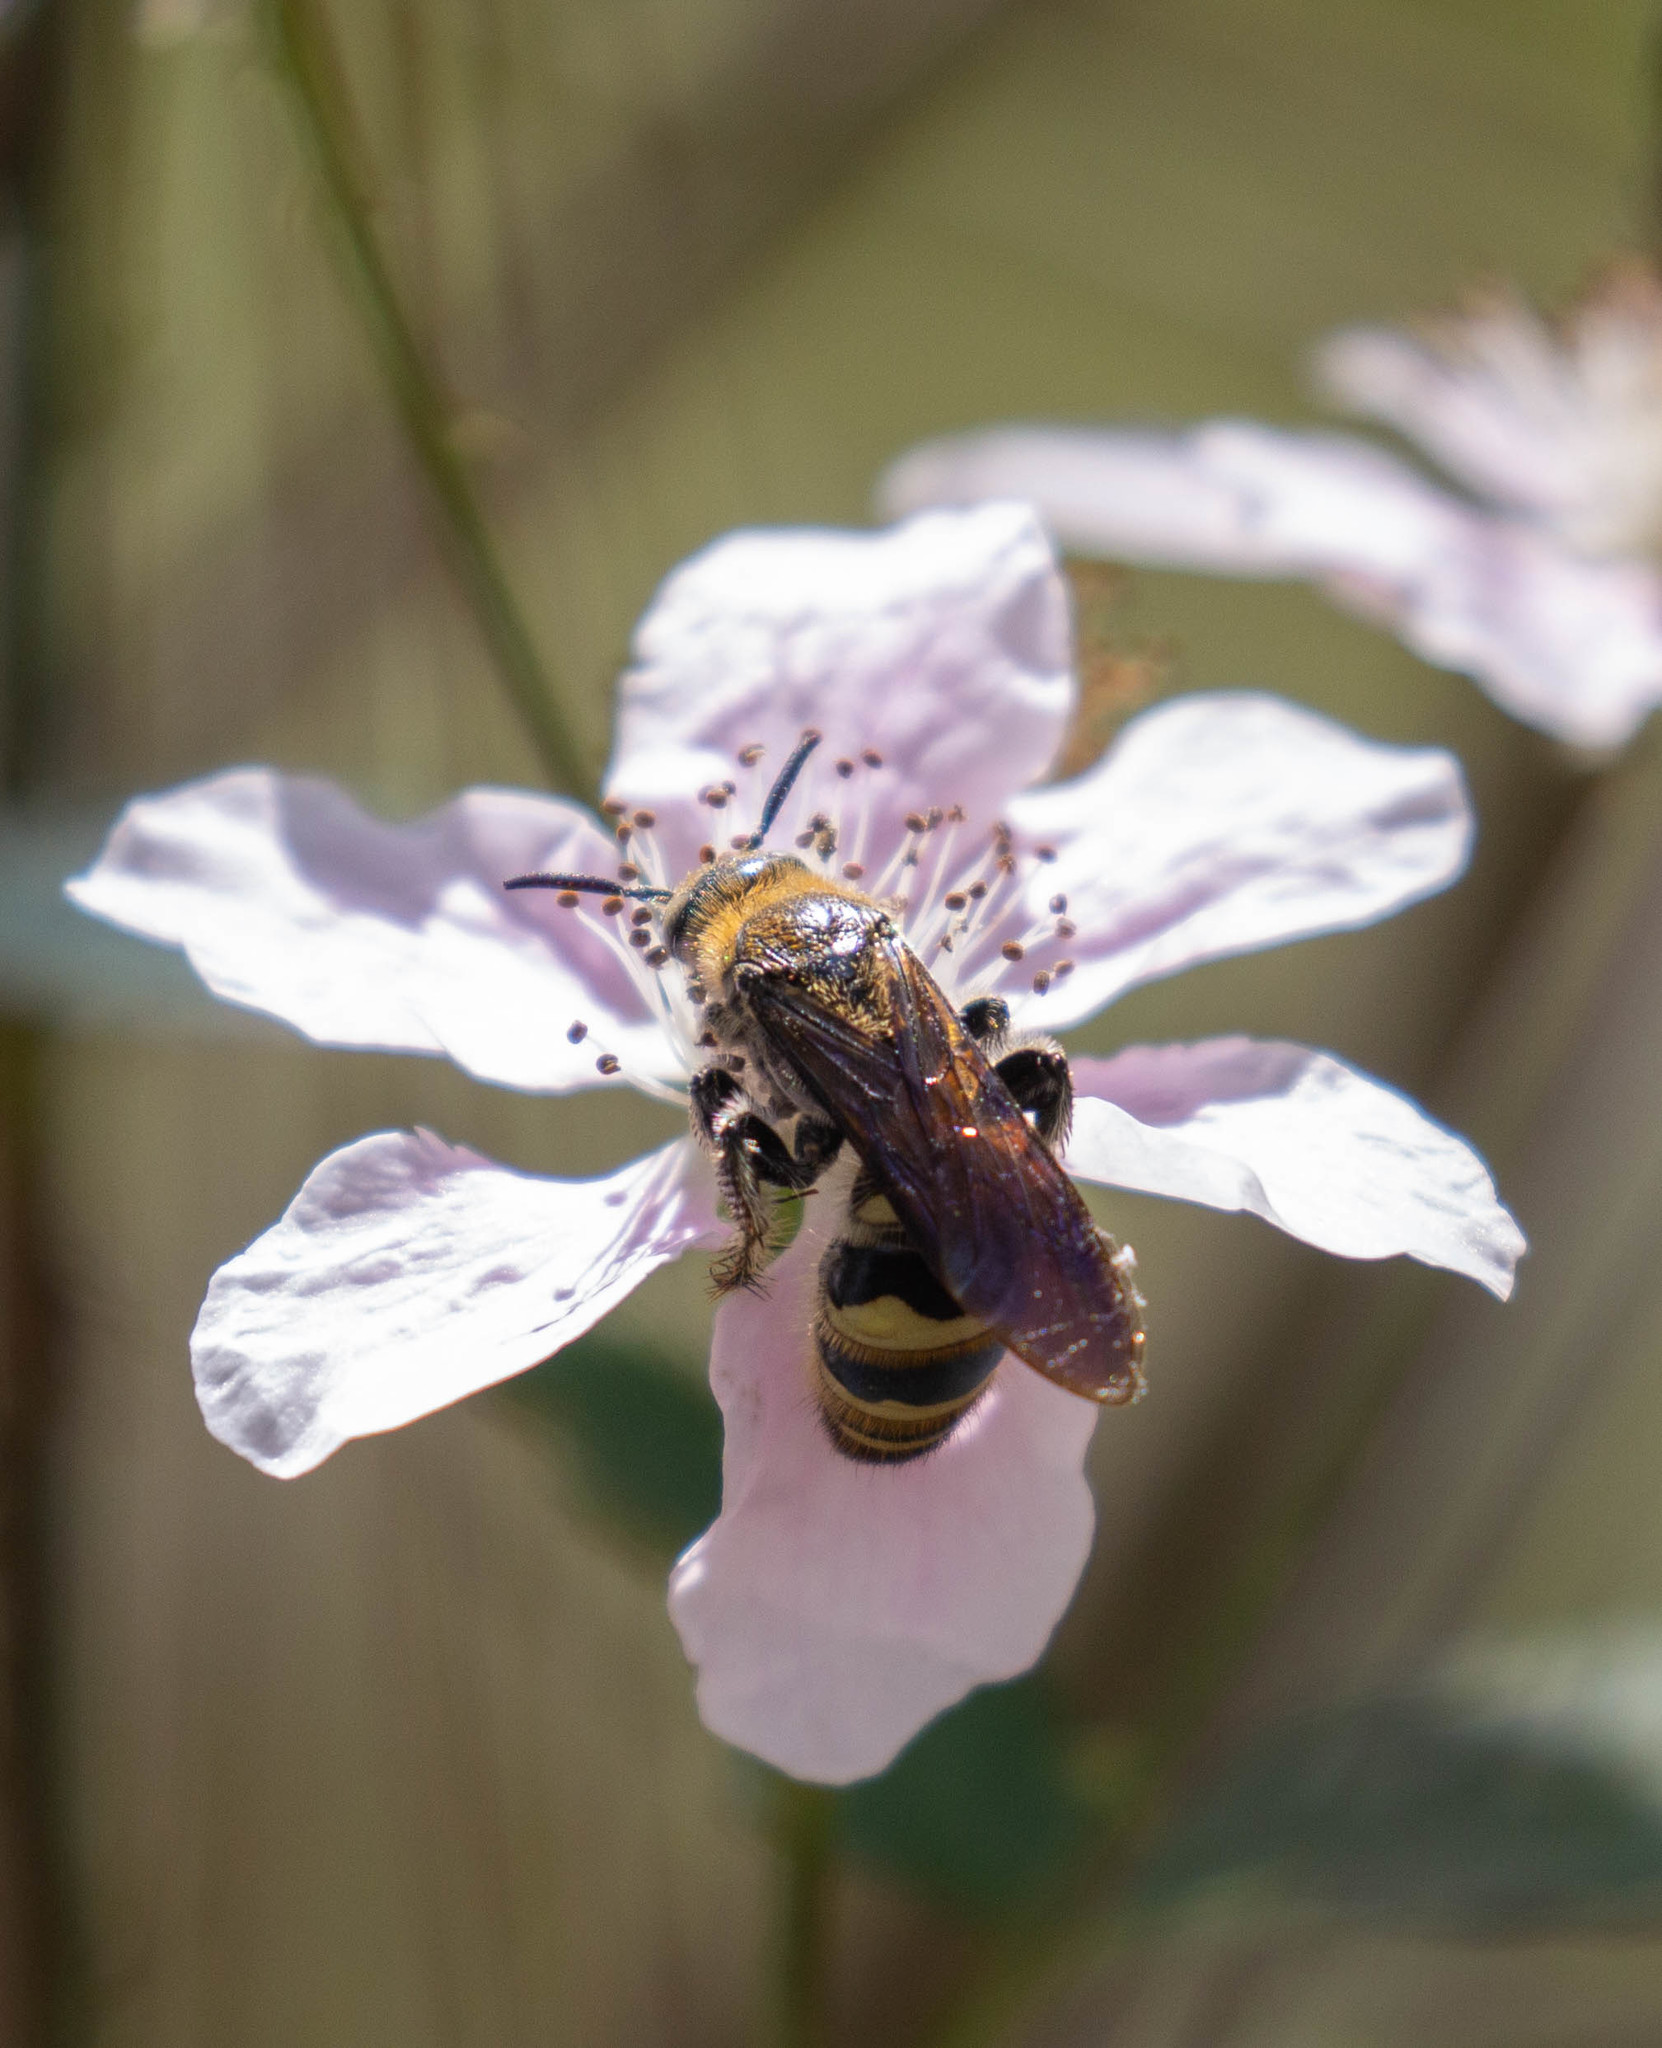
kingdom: Animalia
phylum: Arthropoda
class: Insecta
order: Hymenoptera
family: Scoliidae
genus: Dielis
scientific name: Dielis
